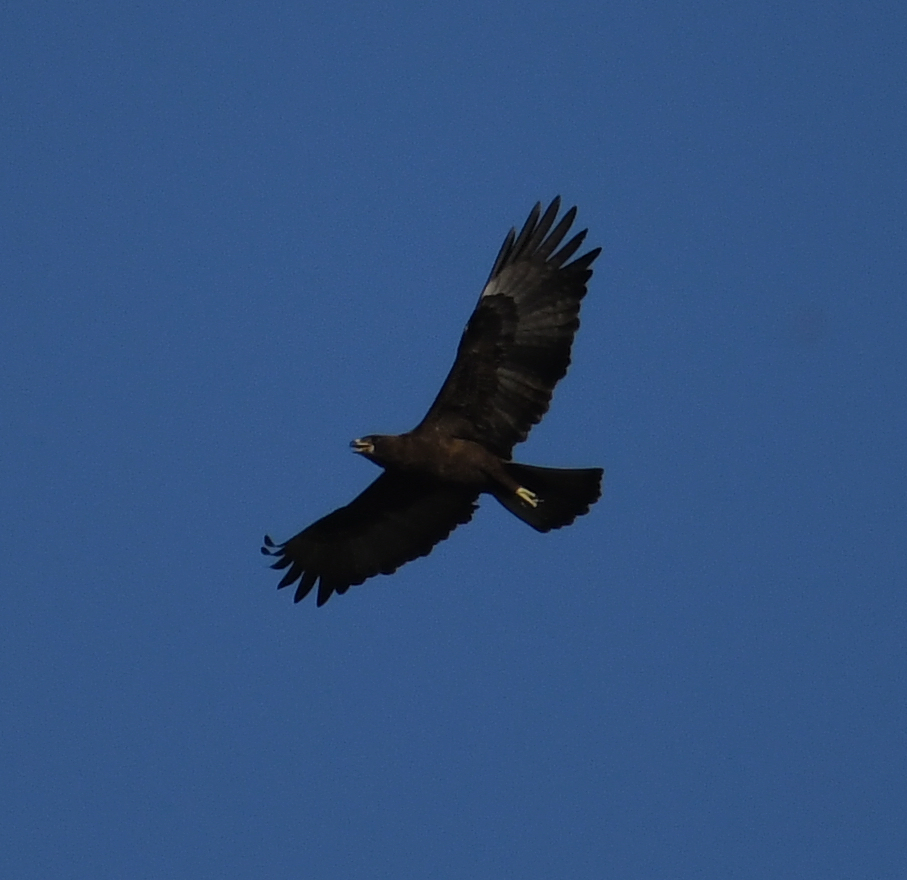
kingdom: Animalia
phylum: Chordata
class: Aves
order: Accipitriformes
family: Accipitridae
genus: Hieraaetus
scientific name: Hieraaetus wahlbergi
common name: Wahlberg's eagle
